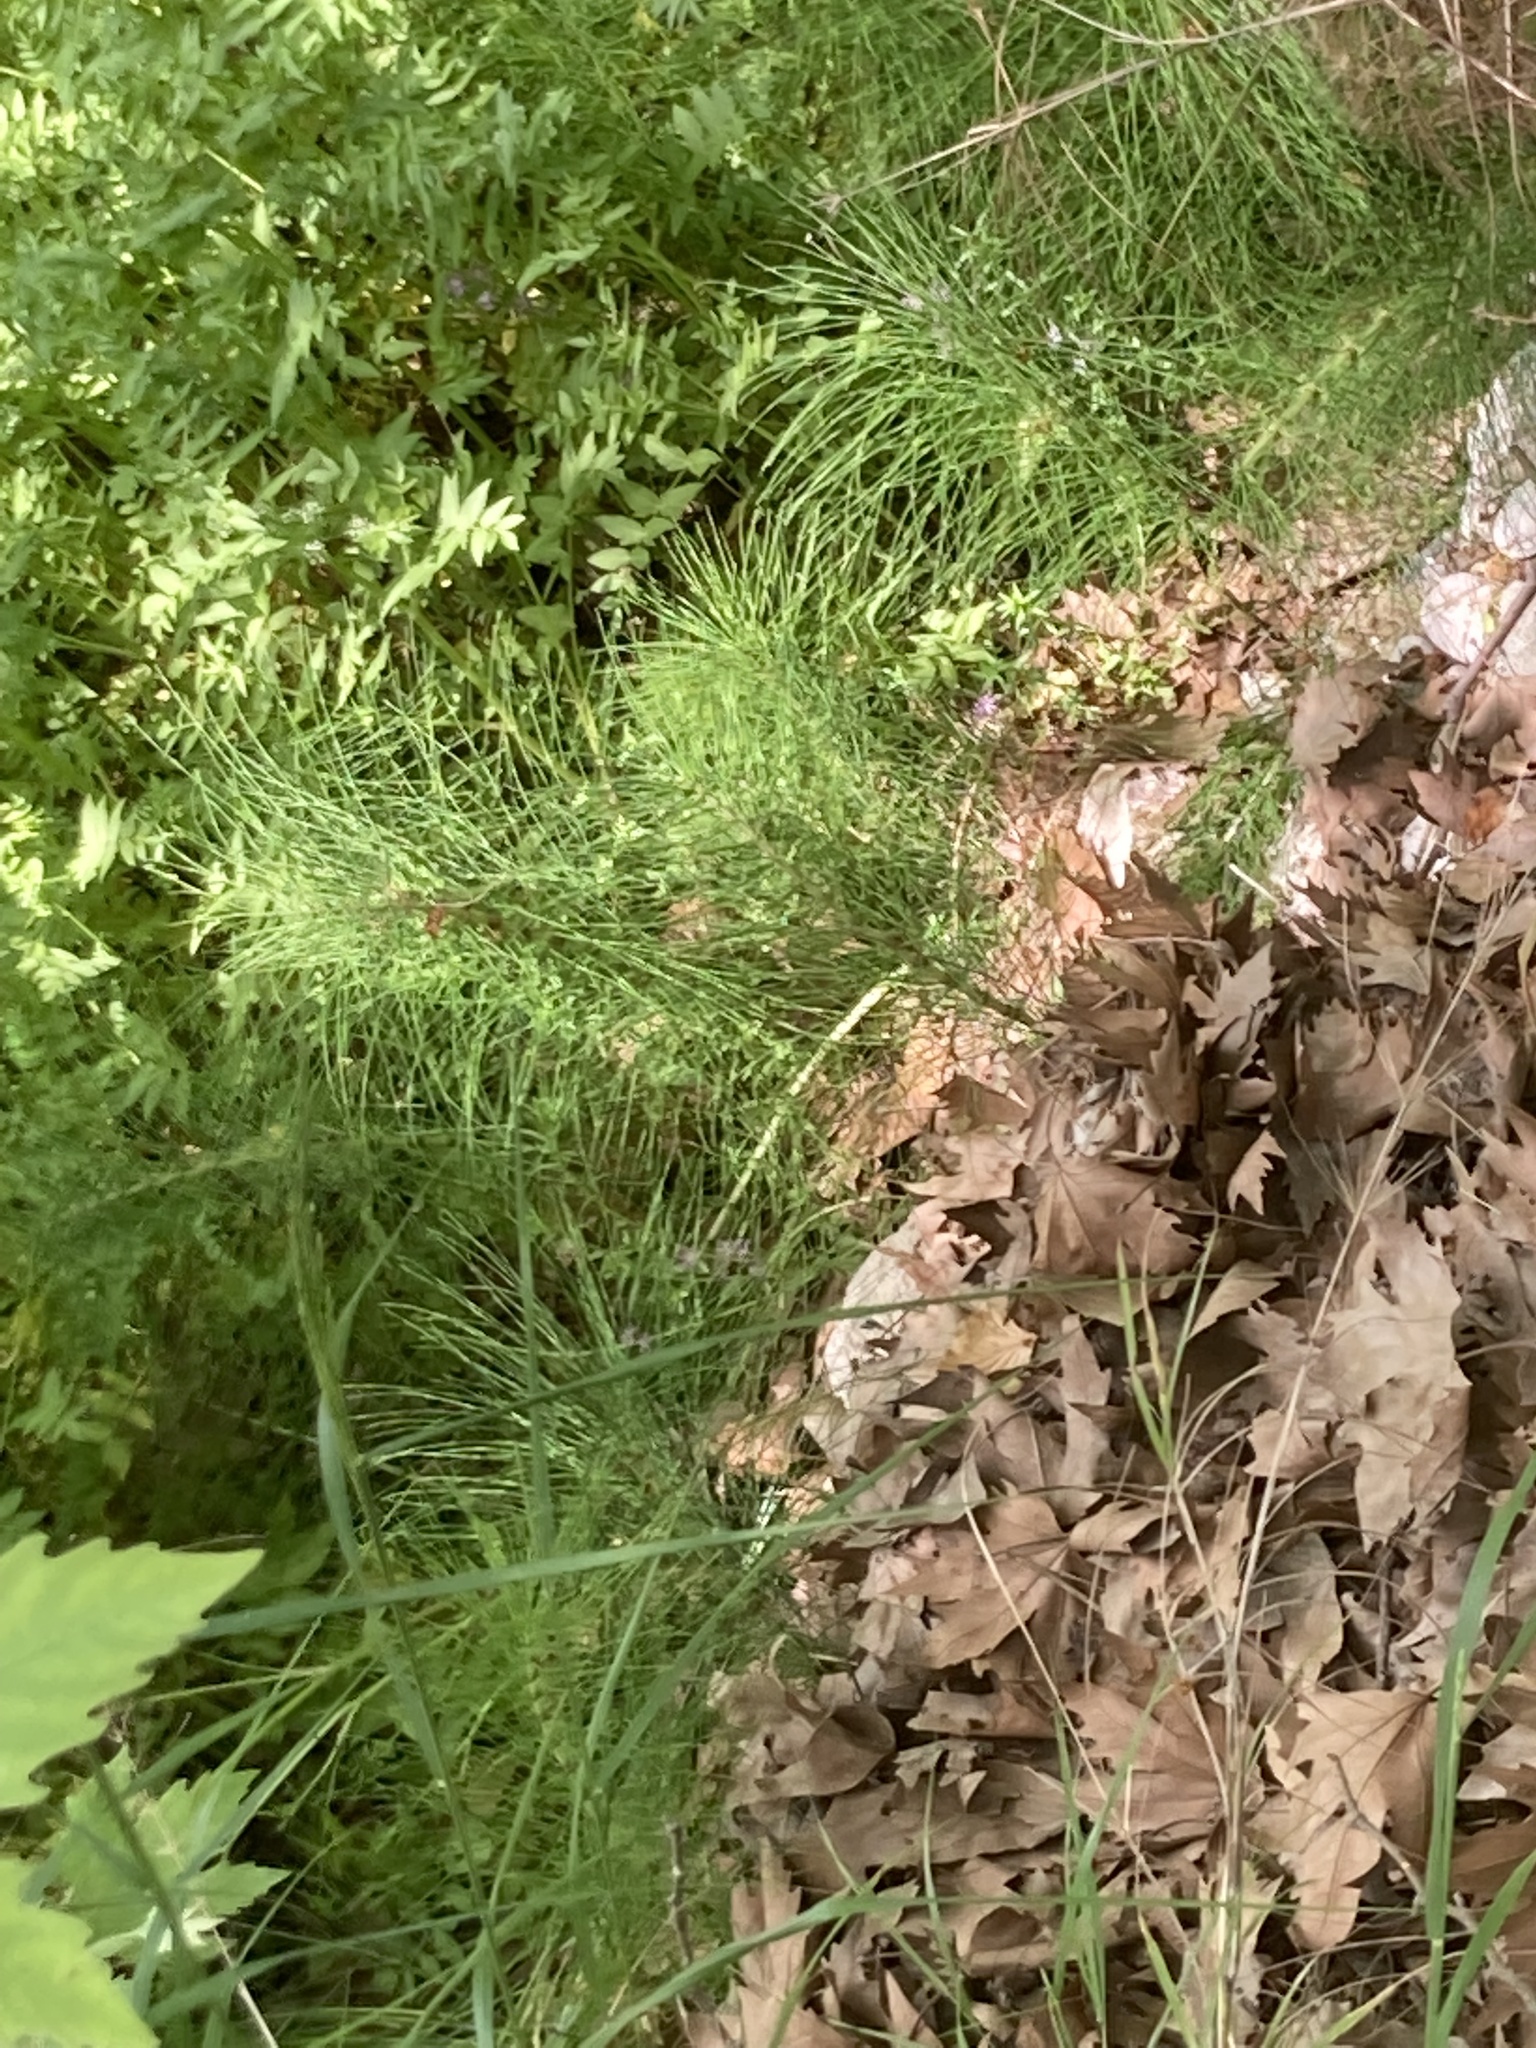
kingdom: Plantae
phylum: Tracheophyta
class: Polypodiopsida
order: Equisetales
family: Equisetaceae
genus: Equisetum
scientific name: Equisetum telmateia
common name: Great horsetail
